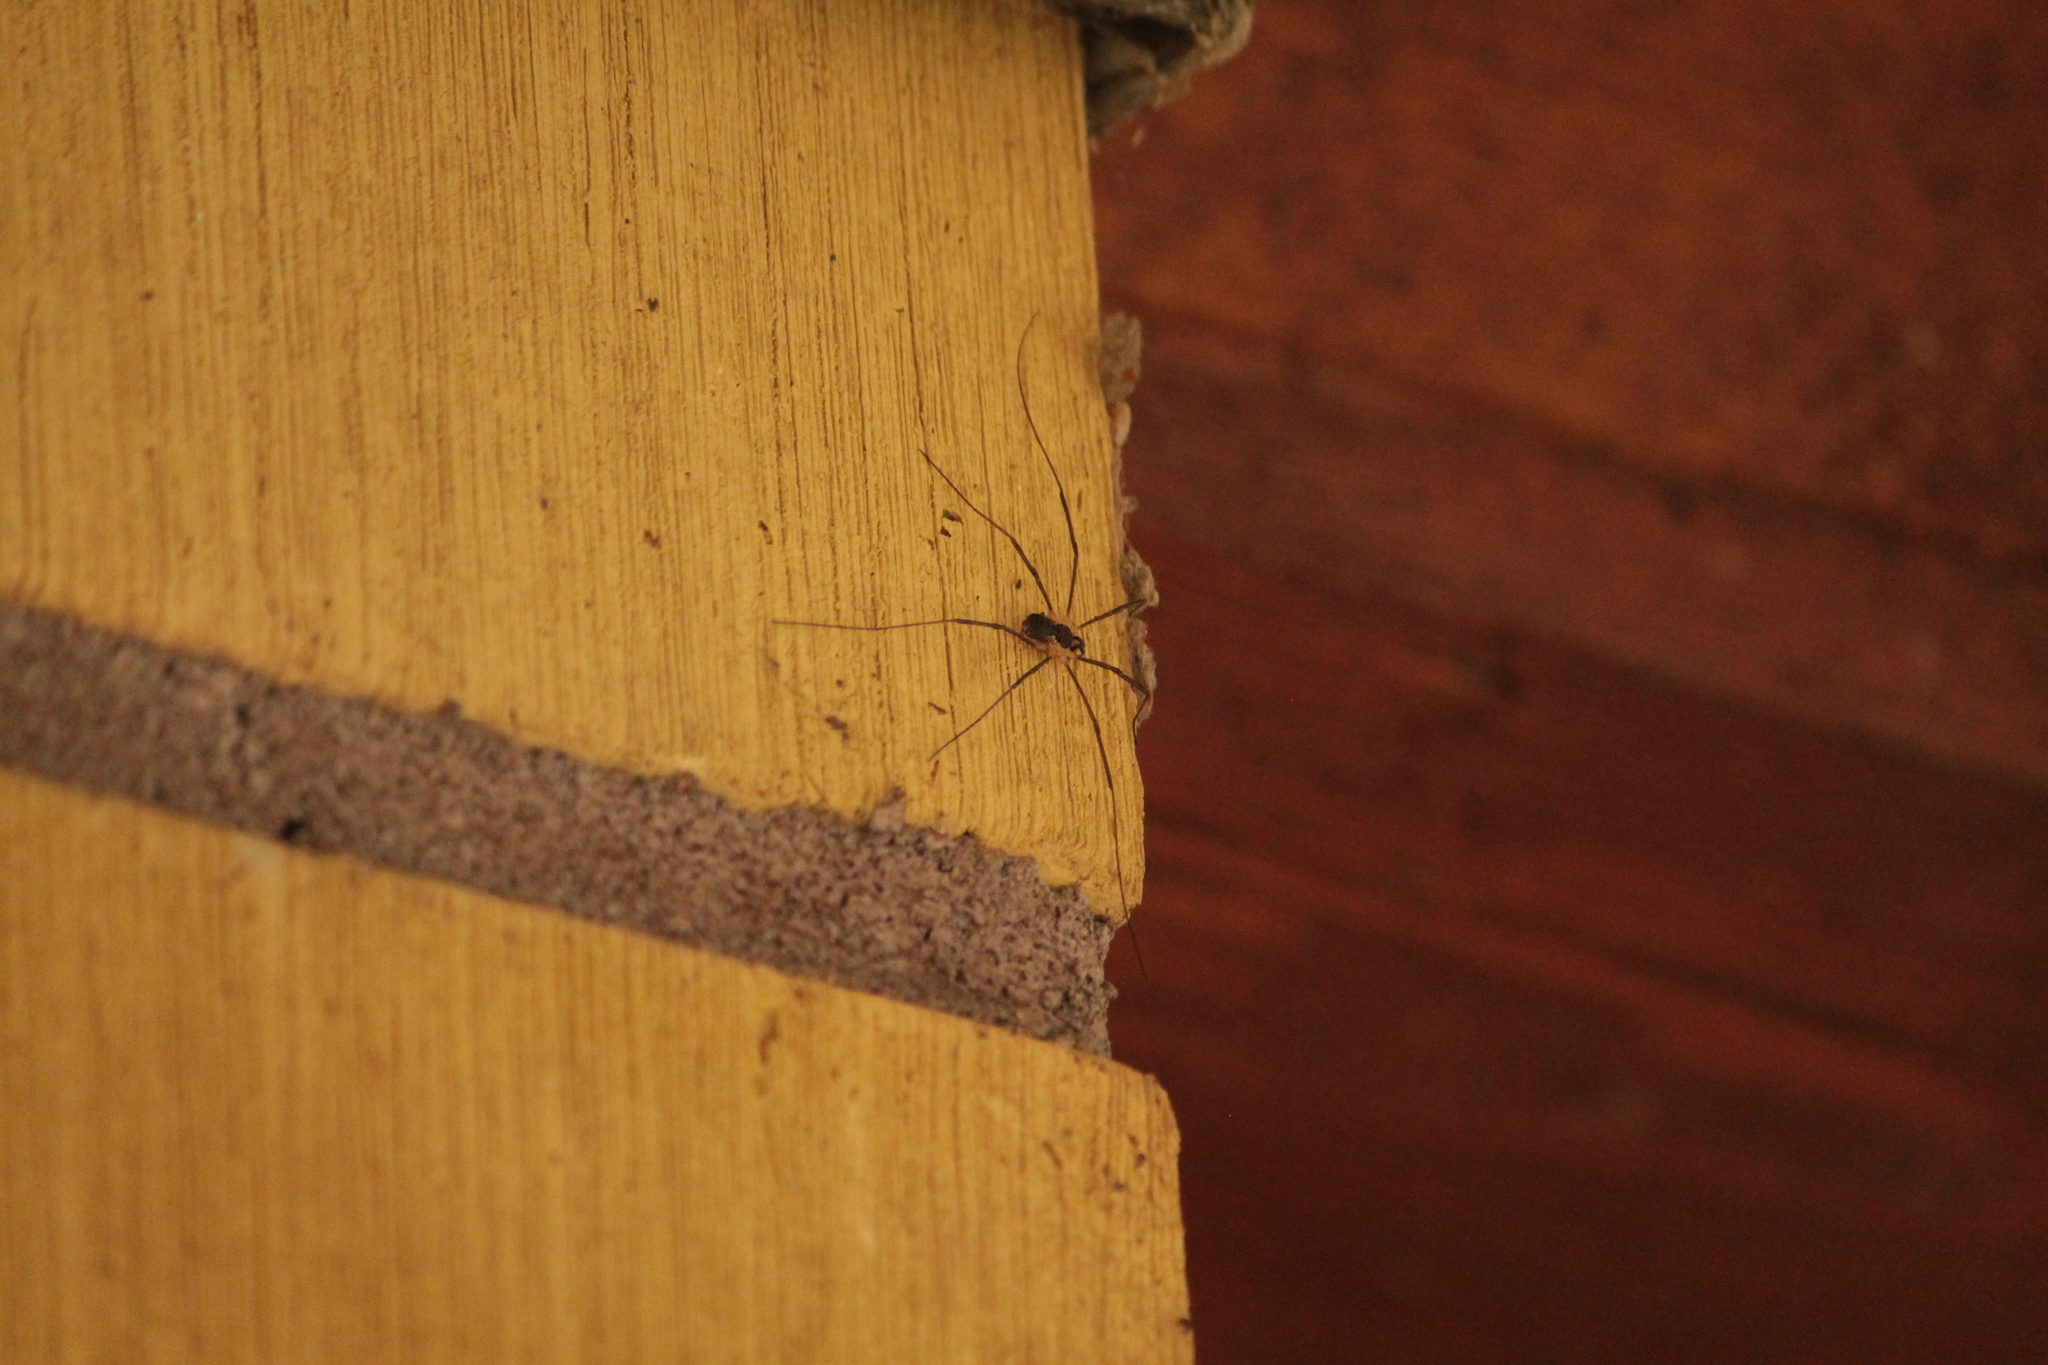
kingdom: Animalia
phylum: Arthropoda
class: Arachnida
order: Opiliones
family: Phalangiidae
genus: Mitopus
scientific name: Mitopus morio
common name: Saddleback harvestman
